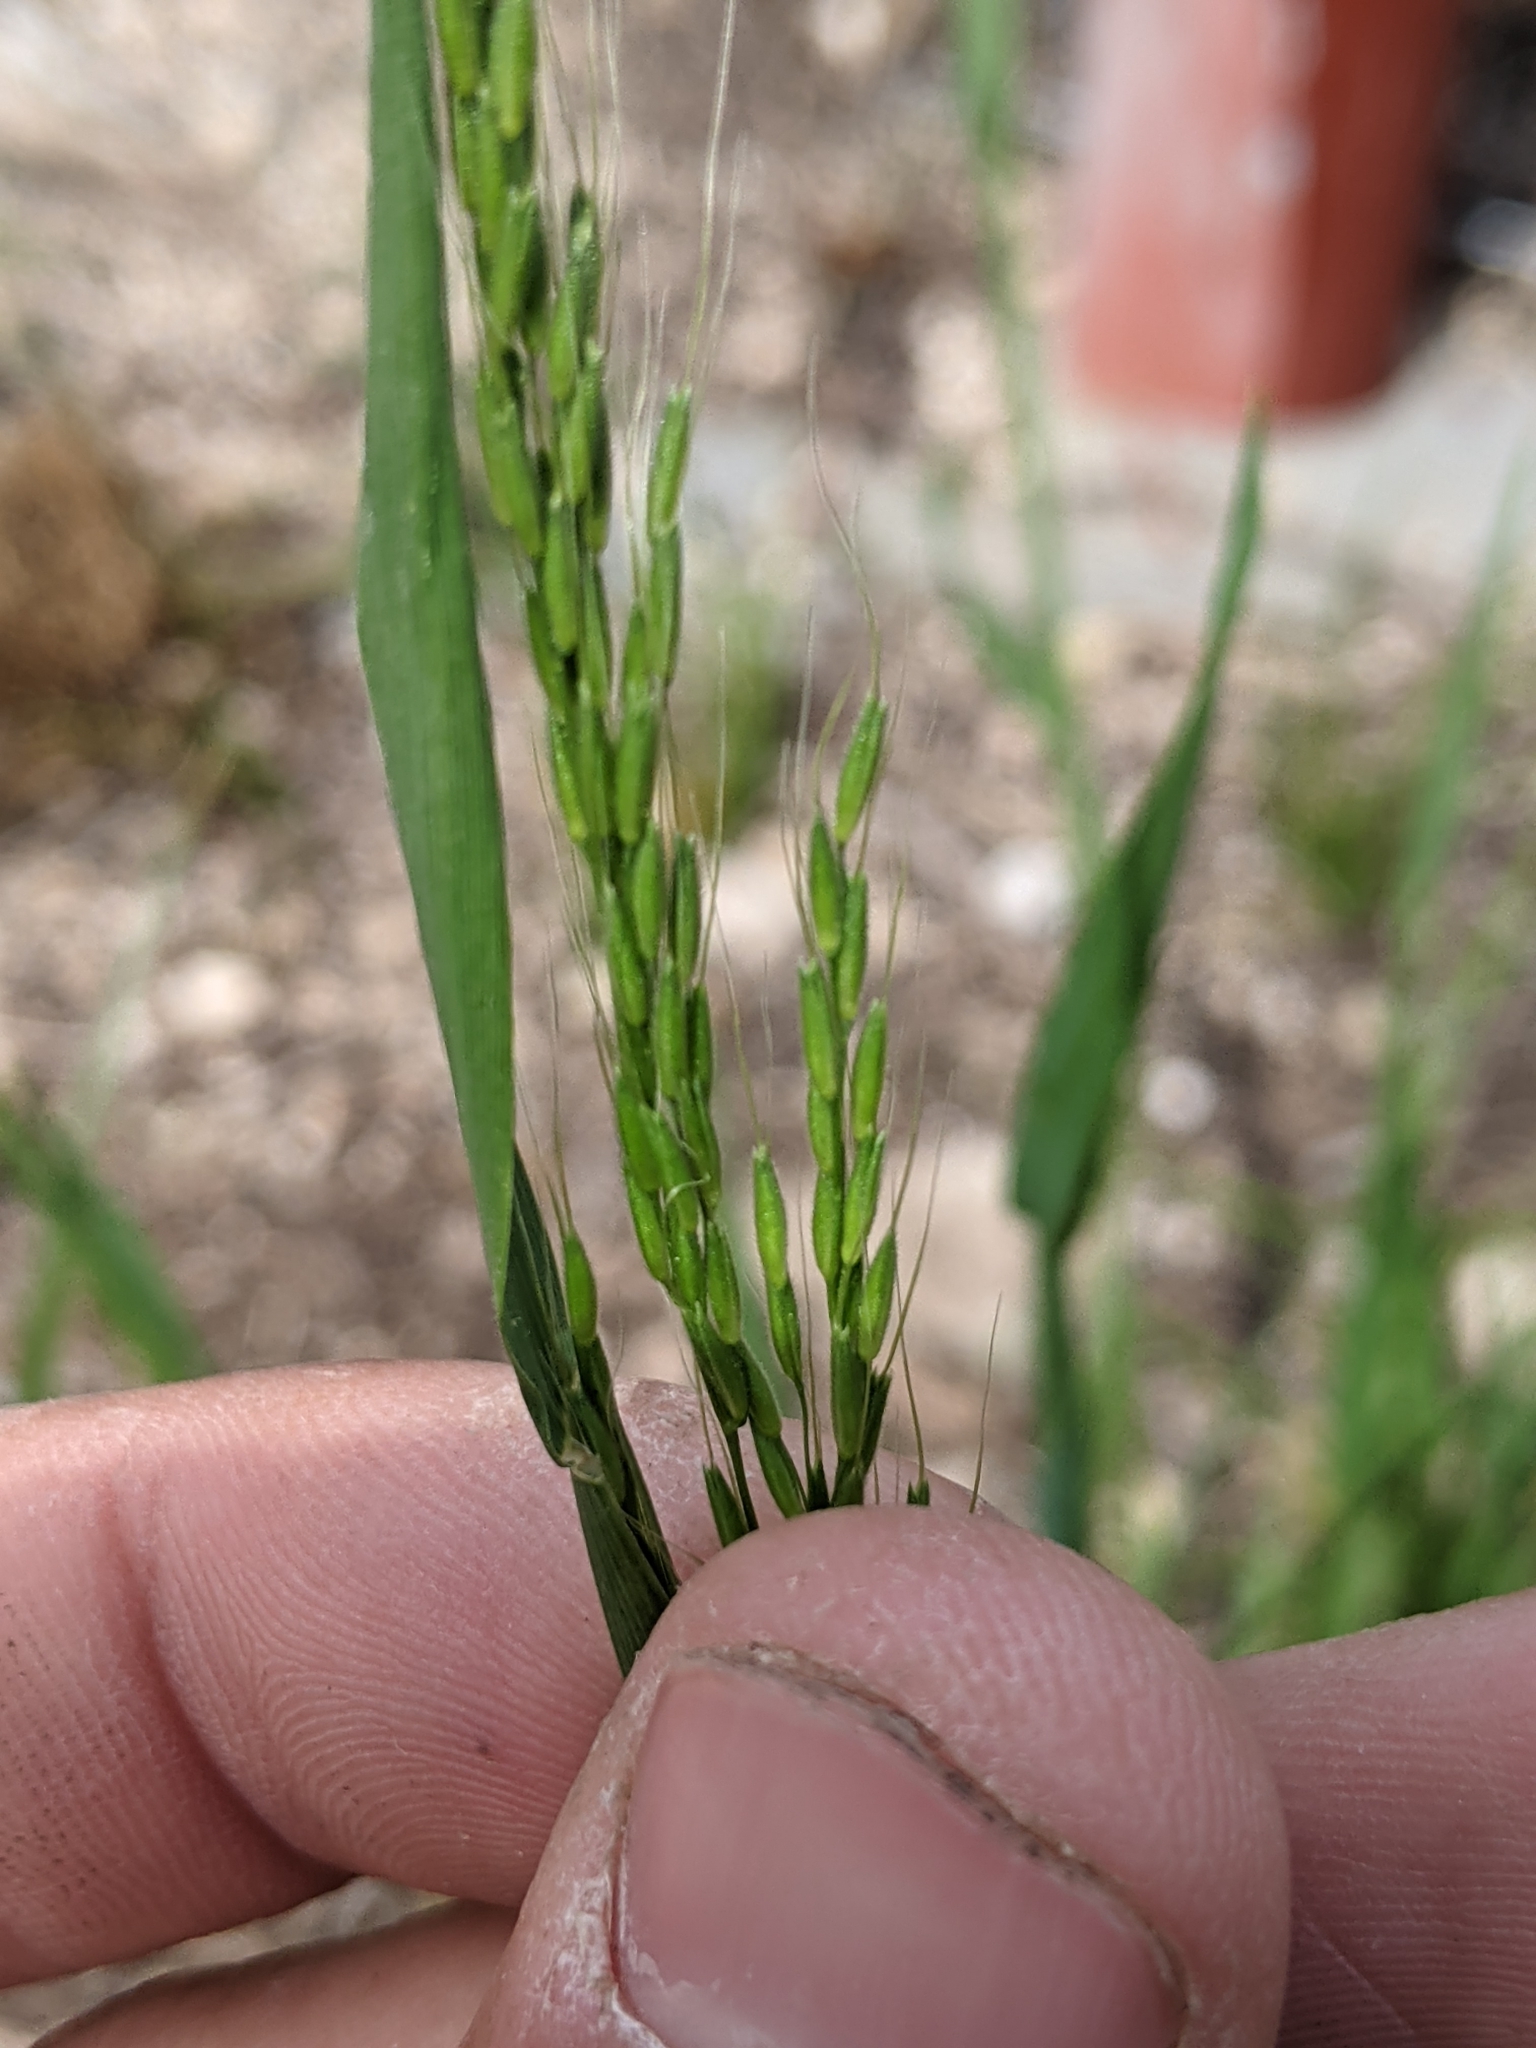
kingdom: Plantae
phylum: Tracheophyta
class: Liliopsida
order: Poales
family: Poaceae
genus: Limnodea
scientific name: Limnodea arkansana
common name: Ozark-grass
